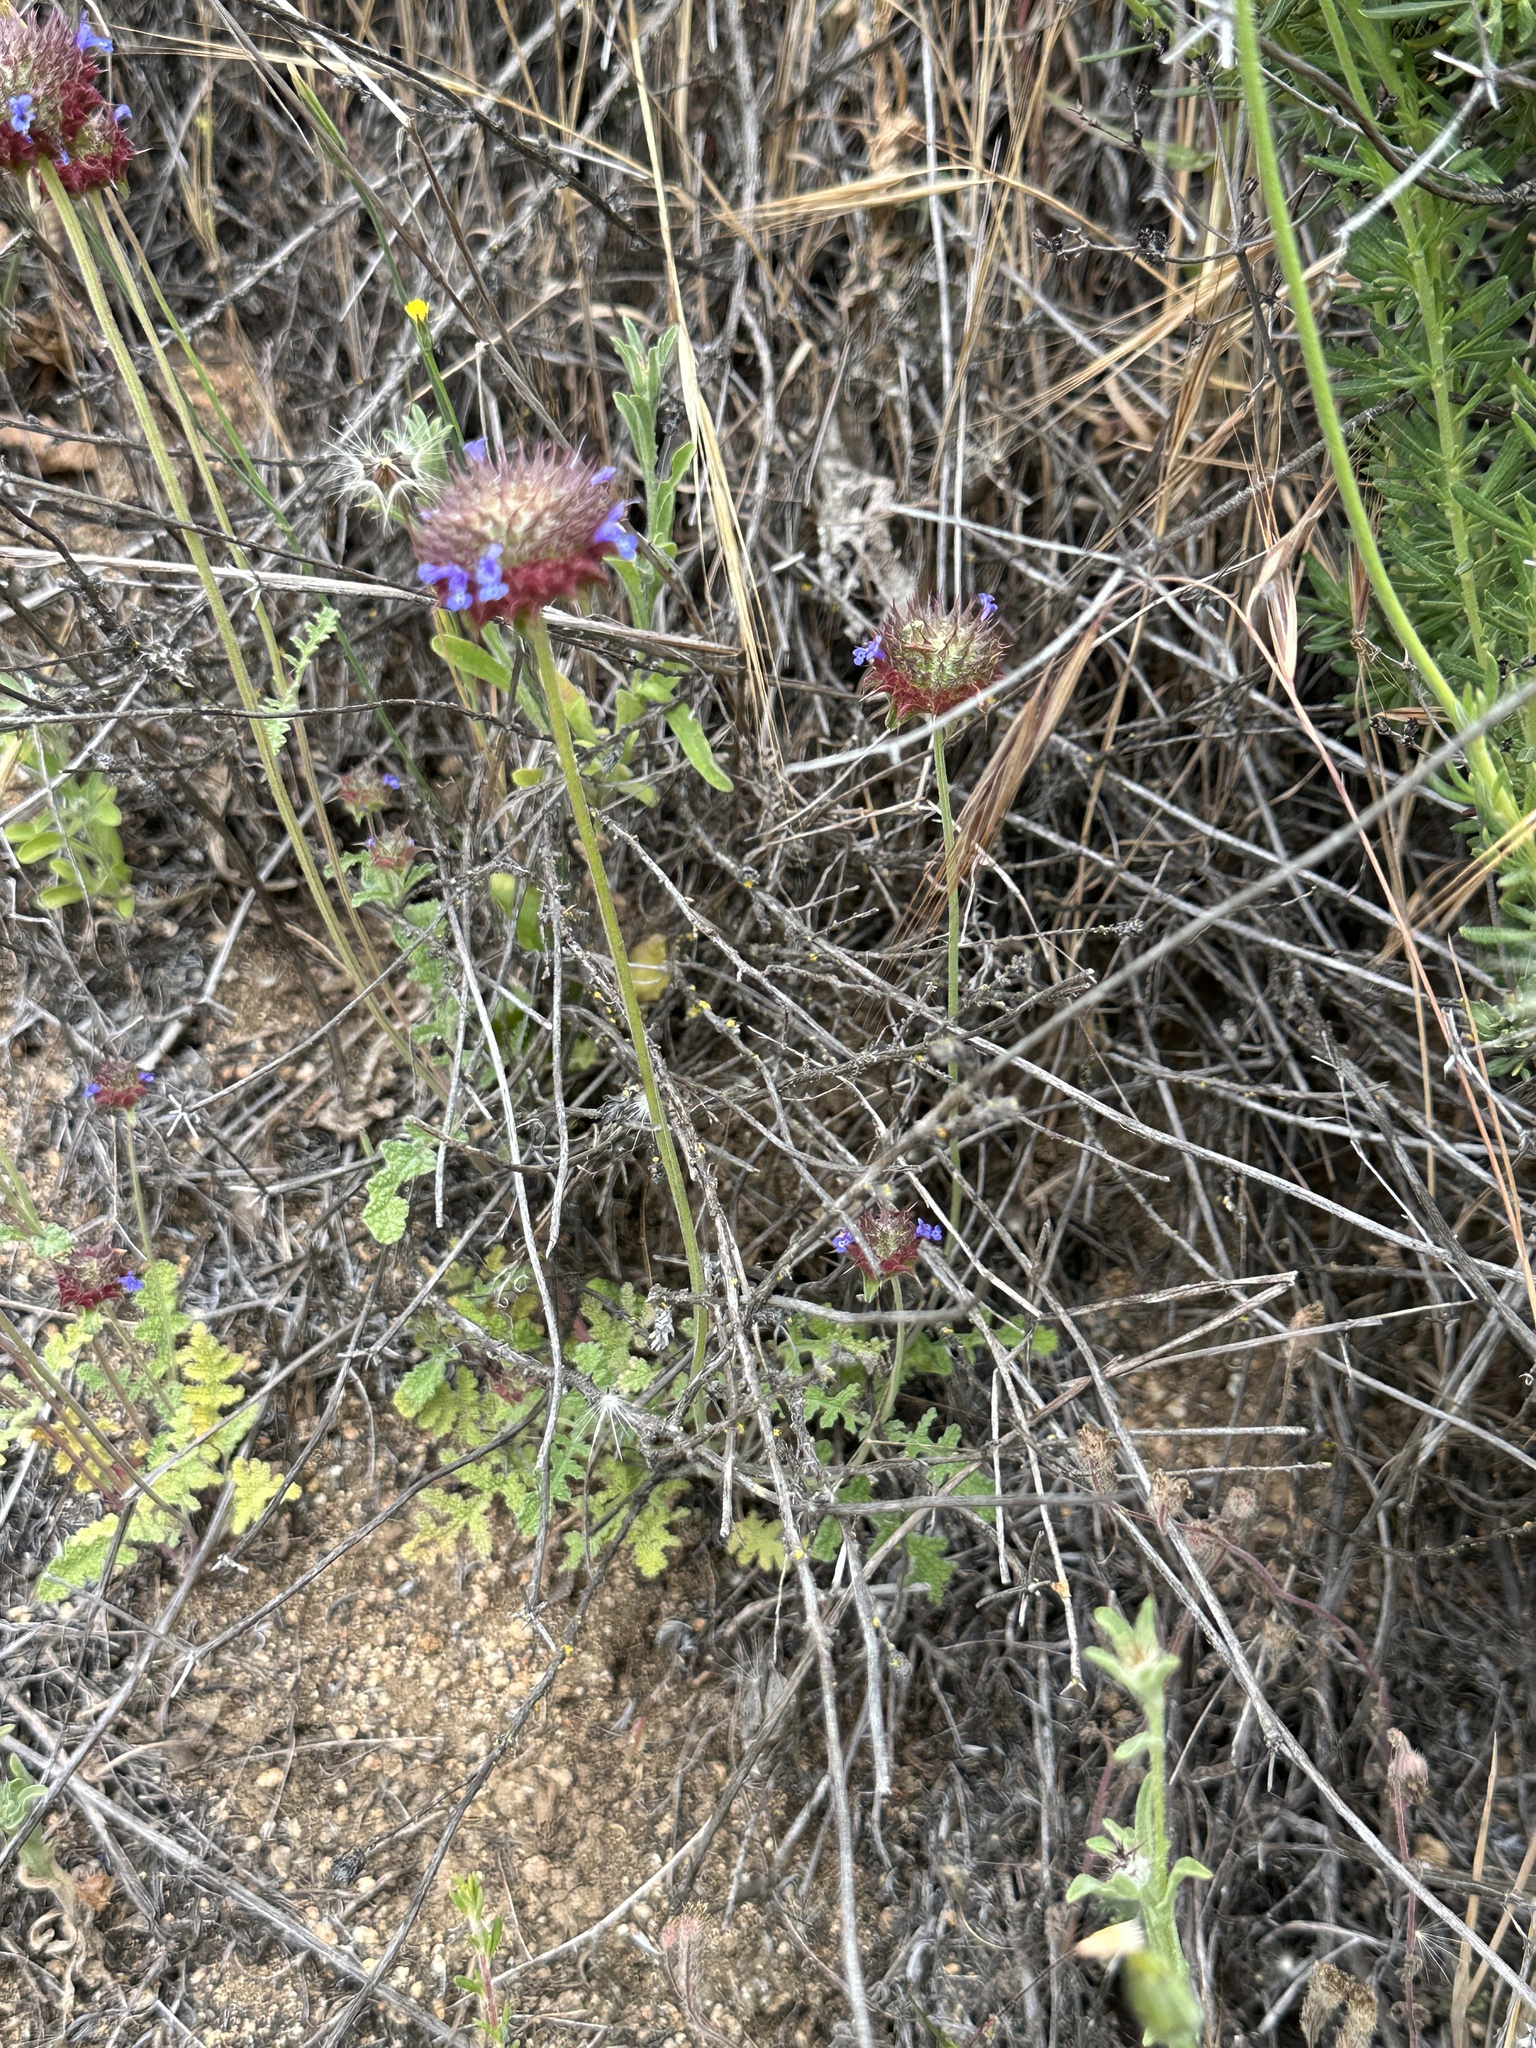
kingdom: Plantae
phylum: Tracheophyta
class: Magnoliopsida
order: Lamiales
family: Lamiaceae
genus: Salvia
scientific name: Salvia columbariae
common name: Chia
